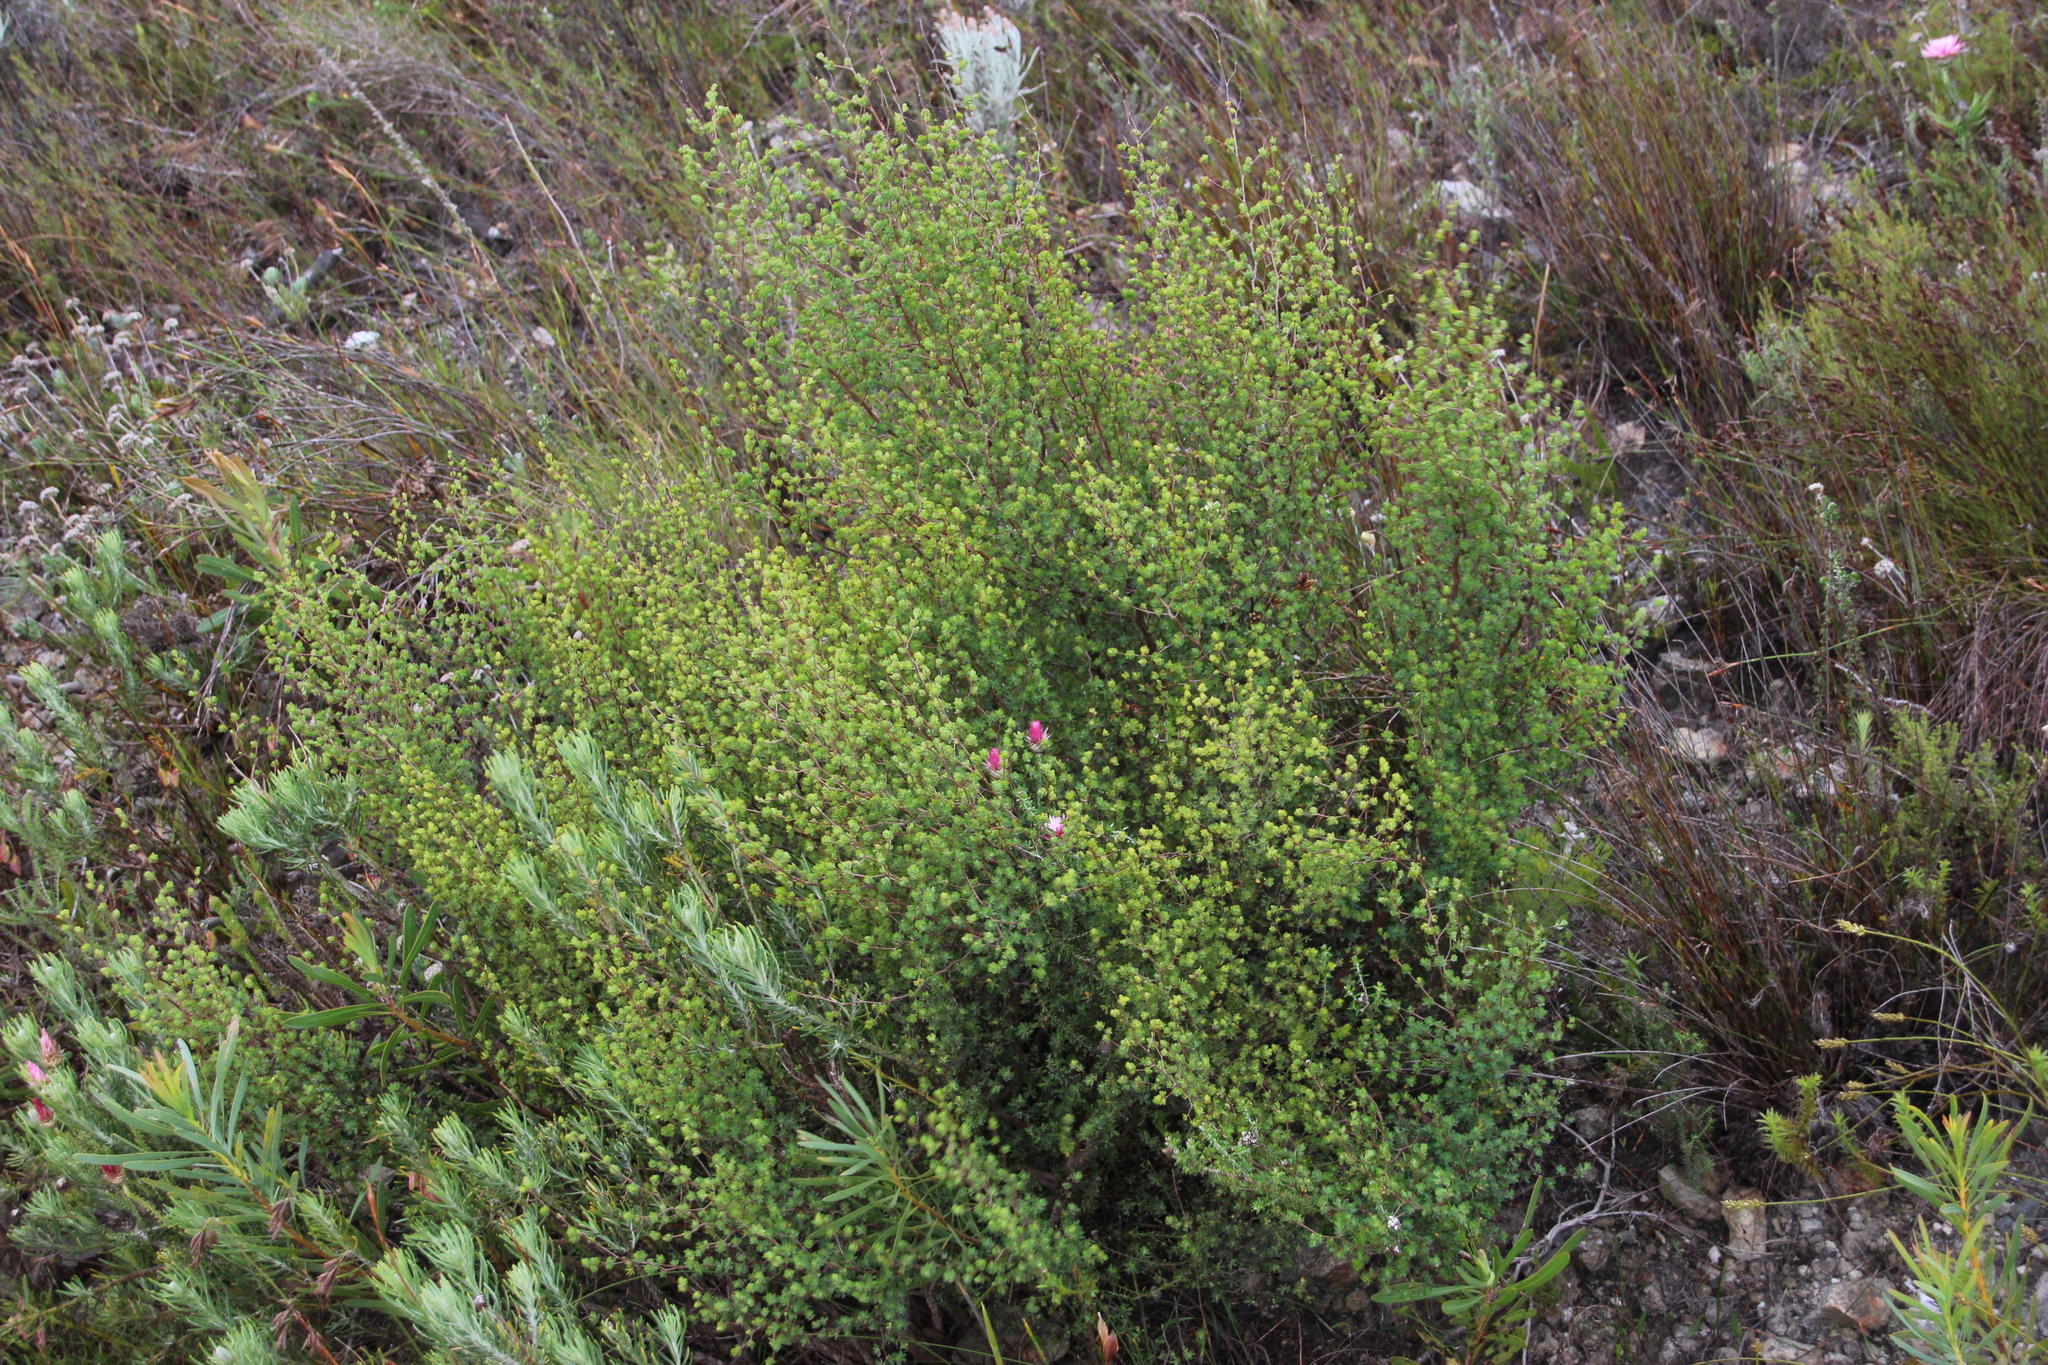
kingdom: Plantae
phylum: Tracheophyta
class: Magnoliopsida
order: Rosales
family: Rosaceae
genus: Cliffortia
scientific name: Cliffortia obovata
